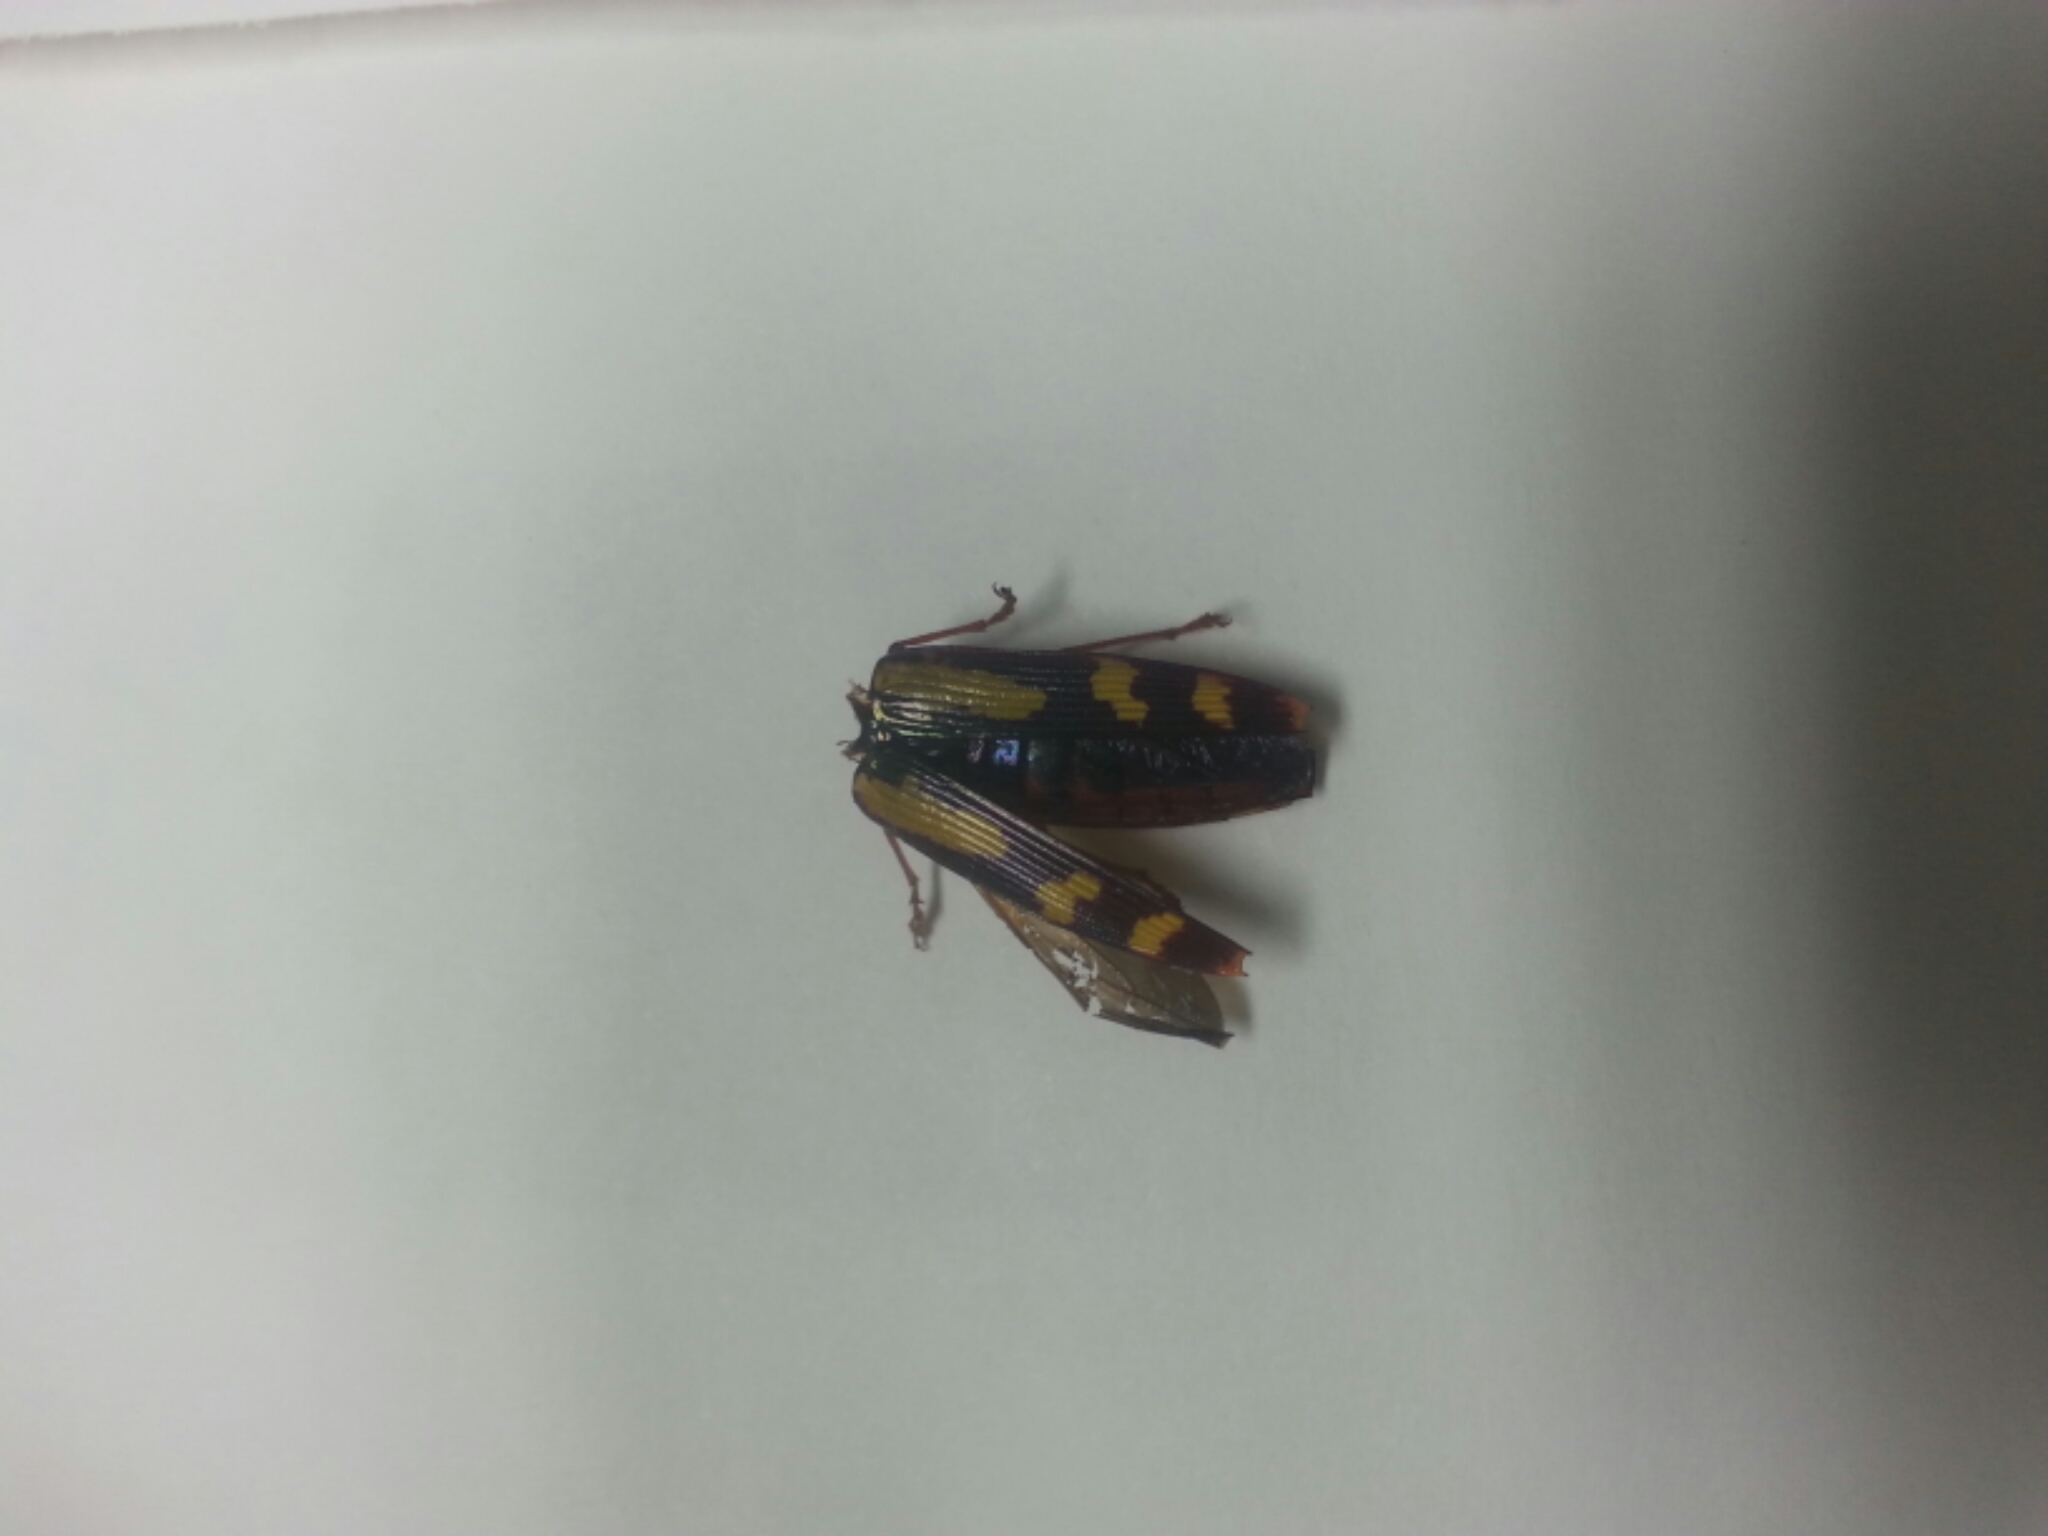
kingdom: Animalia
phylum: Arthropoda
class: Insecta
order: Coleoptera
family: Buprestidae
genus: Buprestis
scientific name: Buprestis rufipes
